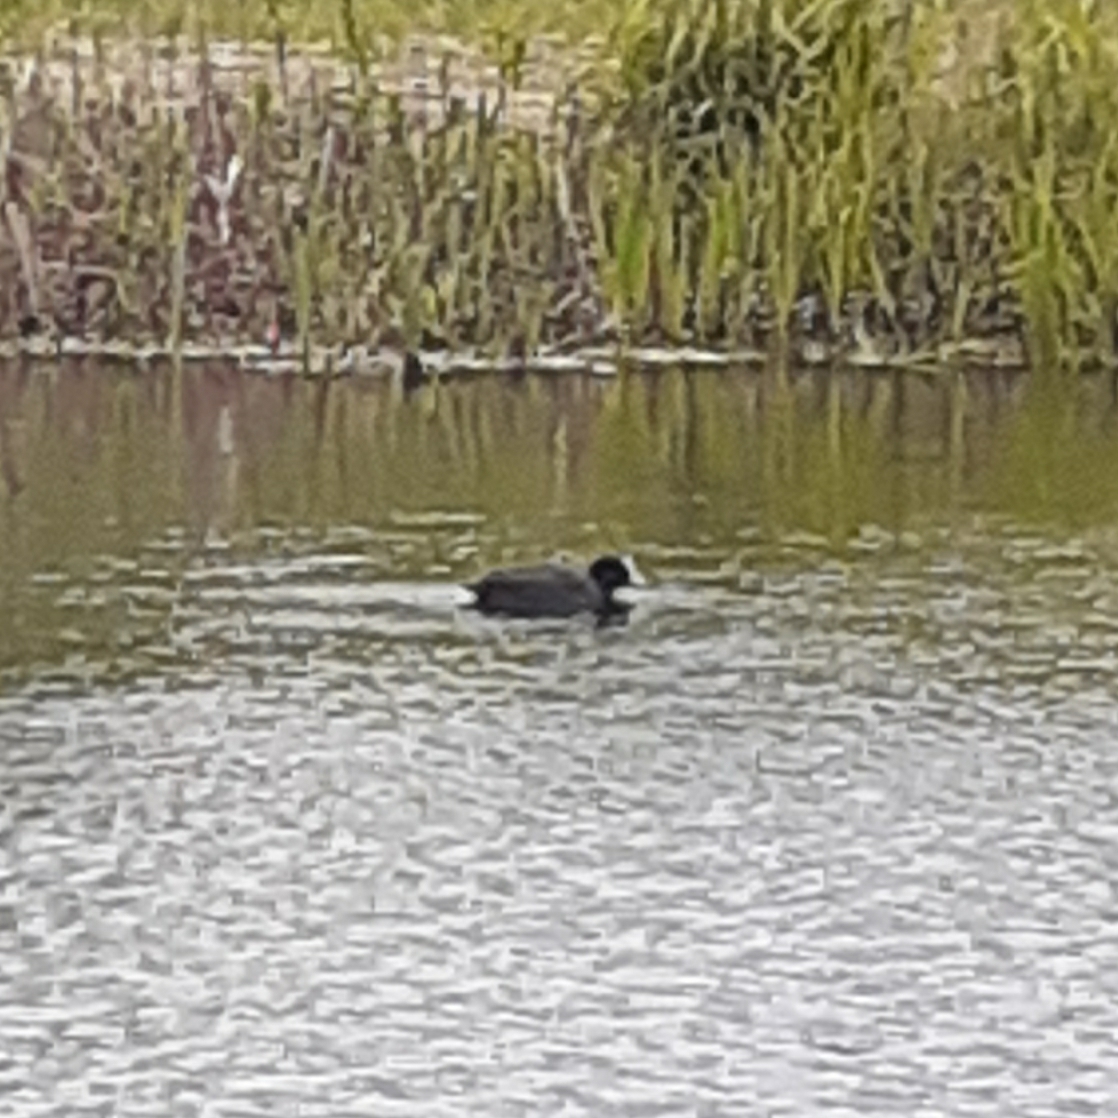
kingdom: Animalia
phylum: Chordata
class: Aves
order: Gruiformes
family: Rallidae
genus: Fulica
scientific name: Fulica atra
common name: Eurasian coot
